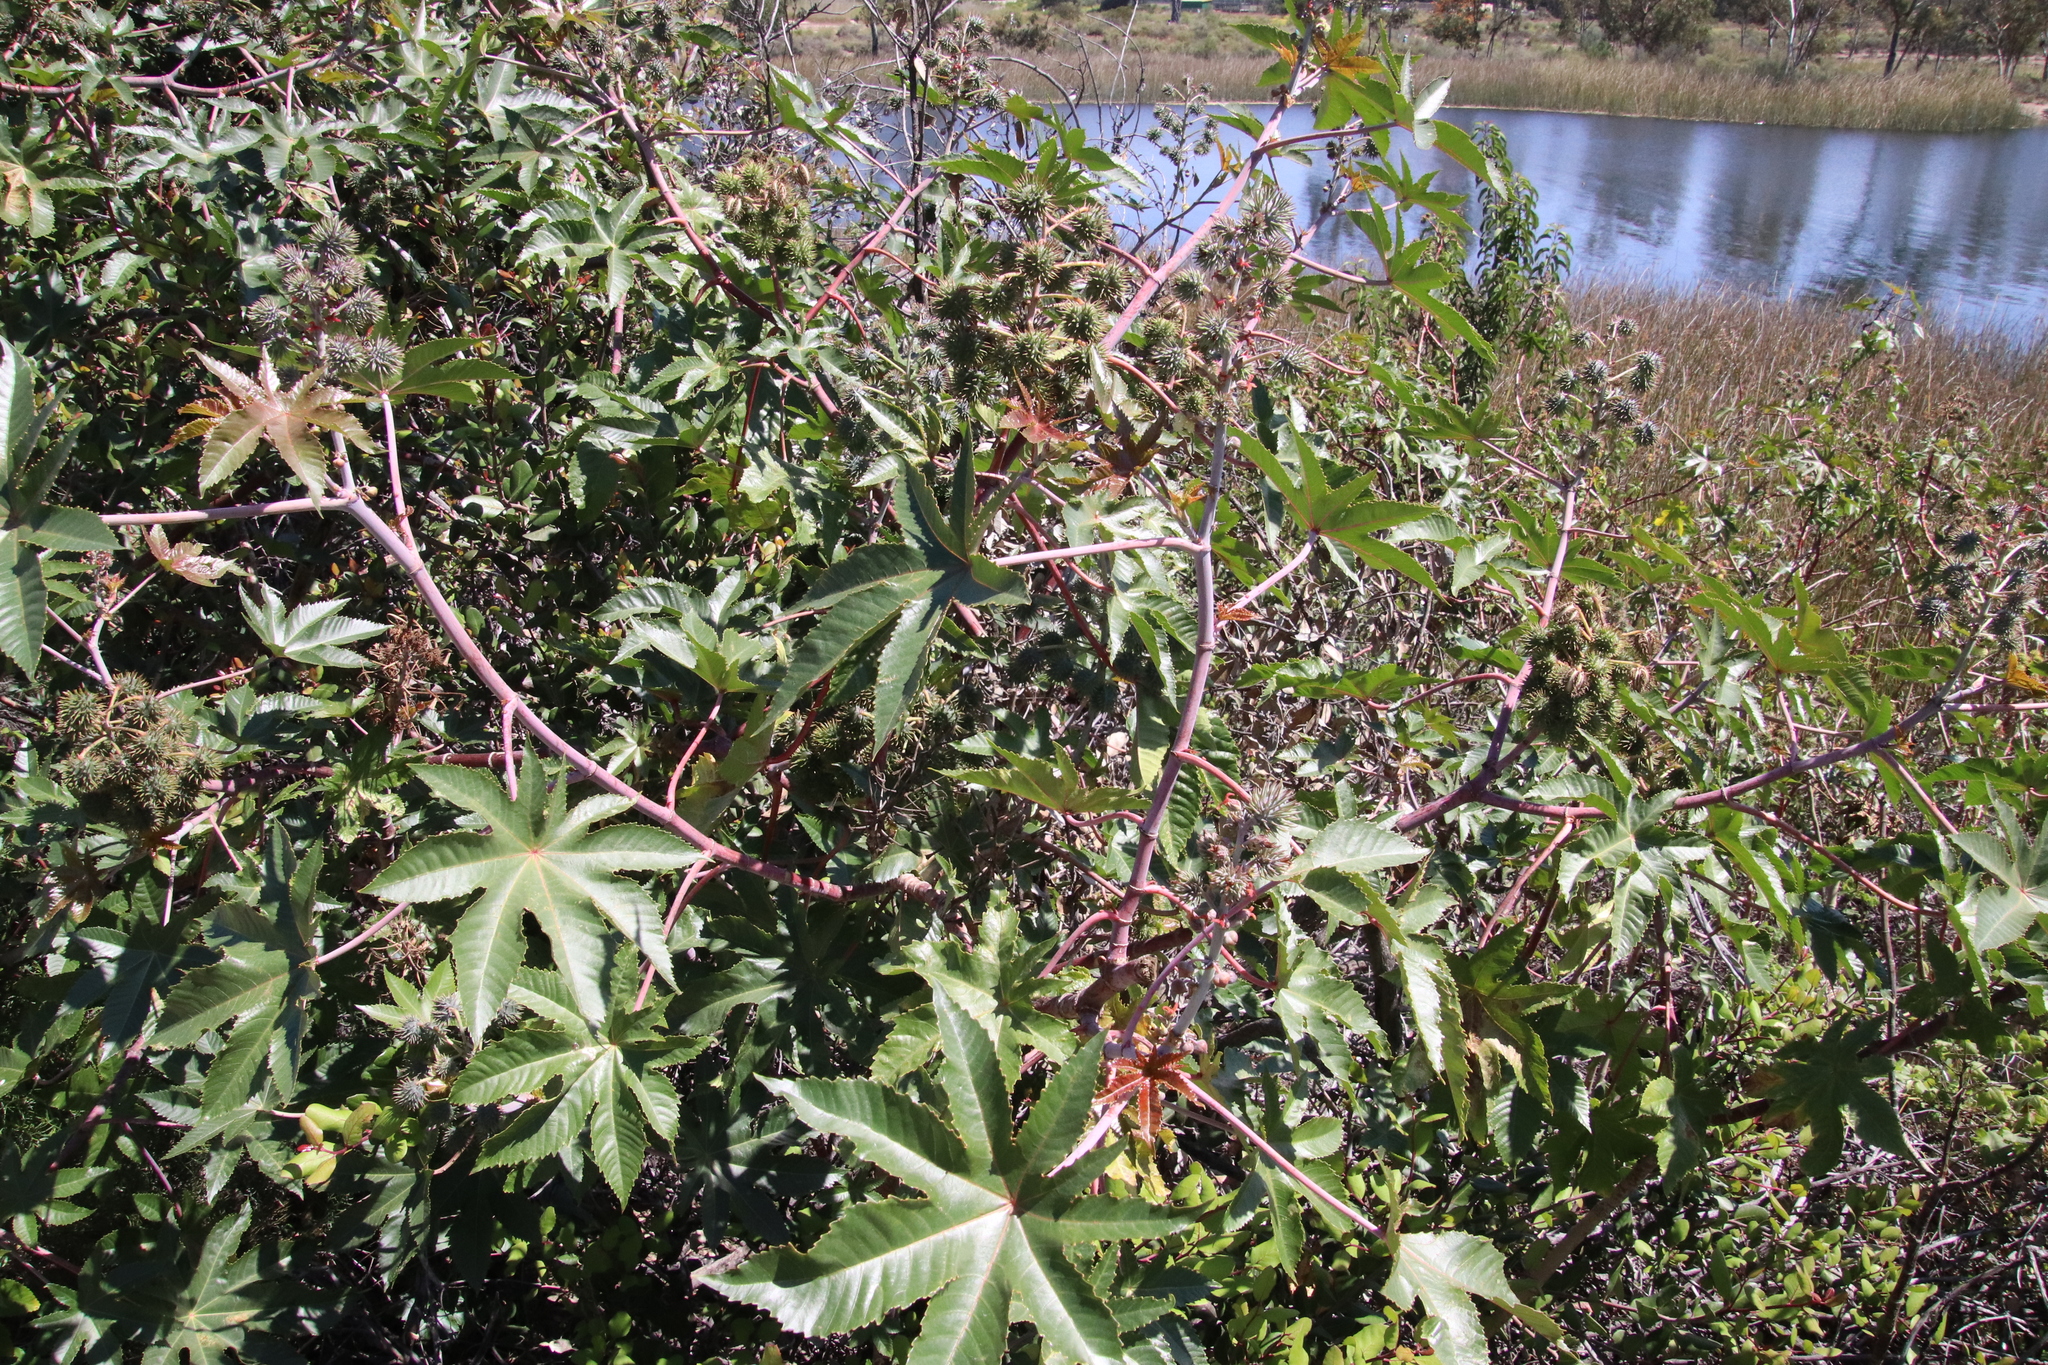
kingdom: Plantae
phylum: Tracheophyta
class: Magnoliopsida
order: Malpighiales
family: Euphorbiaceae
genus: Ricinus
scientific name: Ricinus communis
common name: Castor-oil-plant
